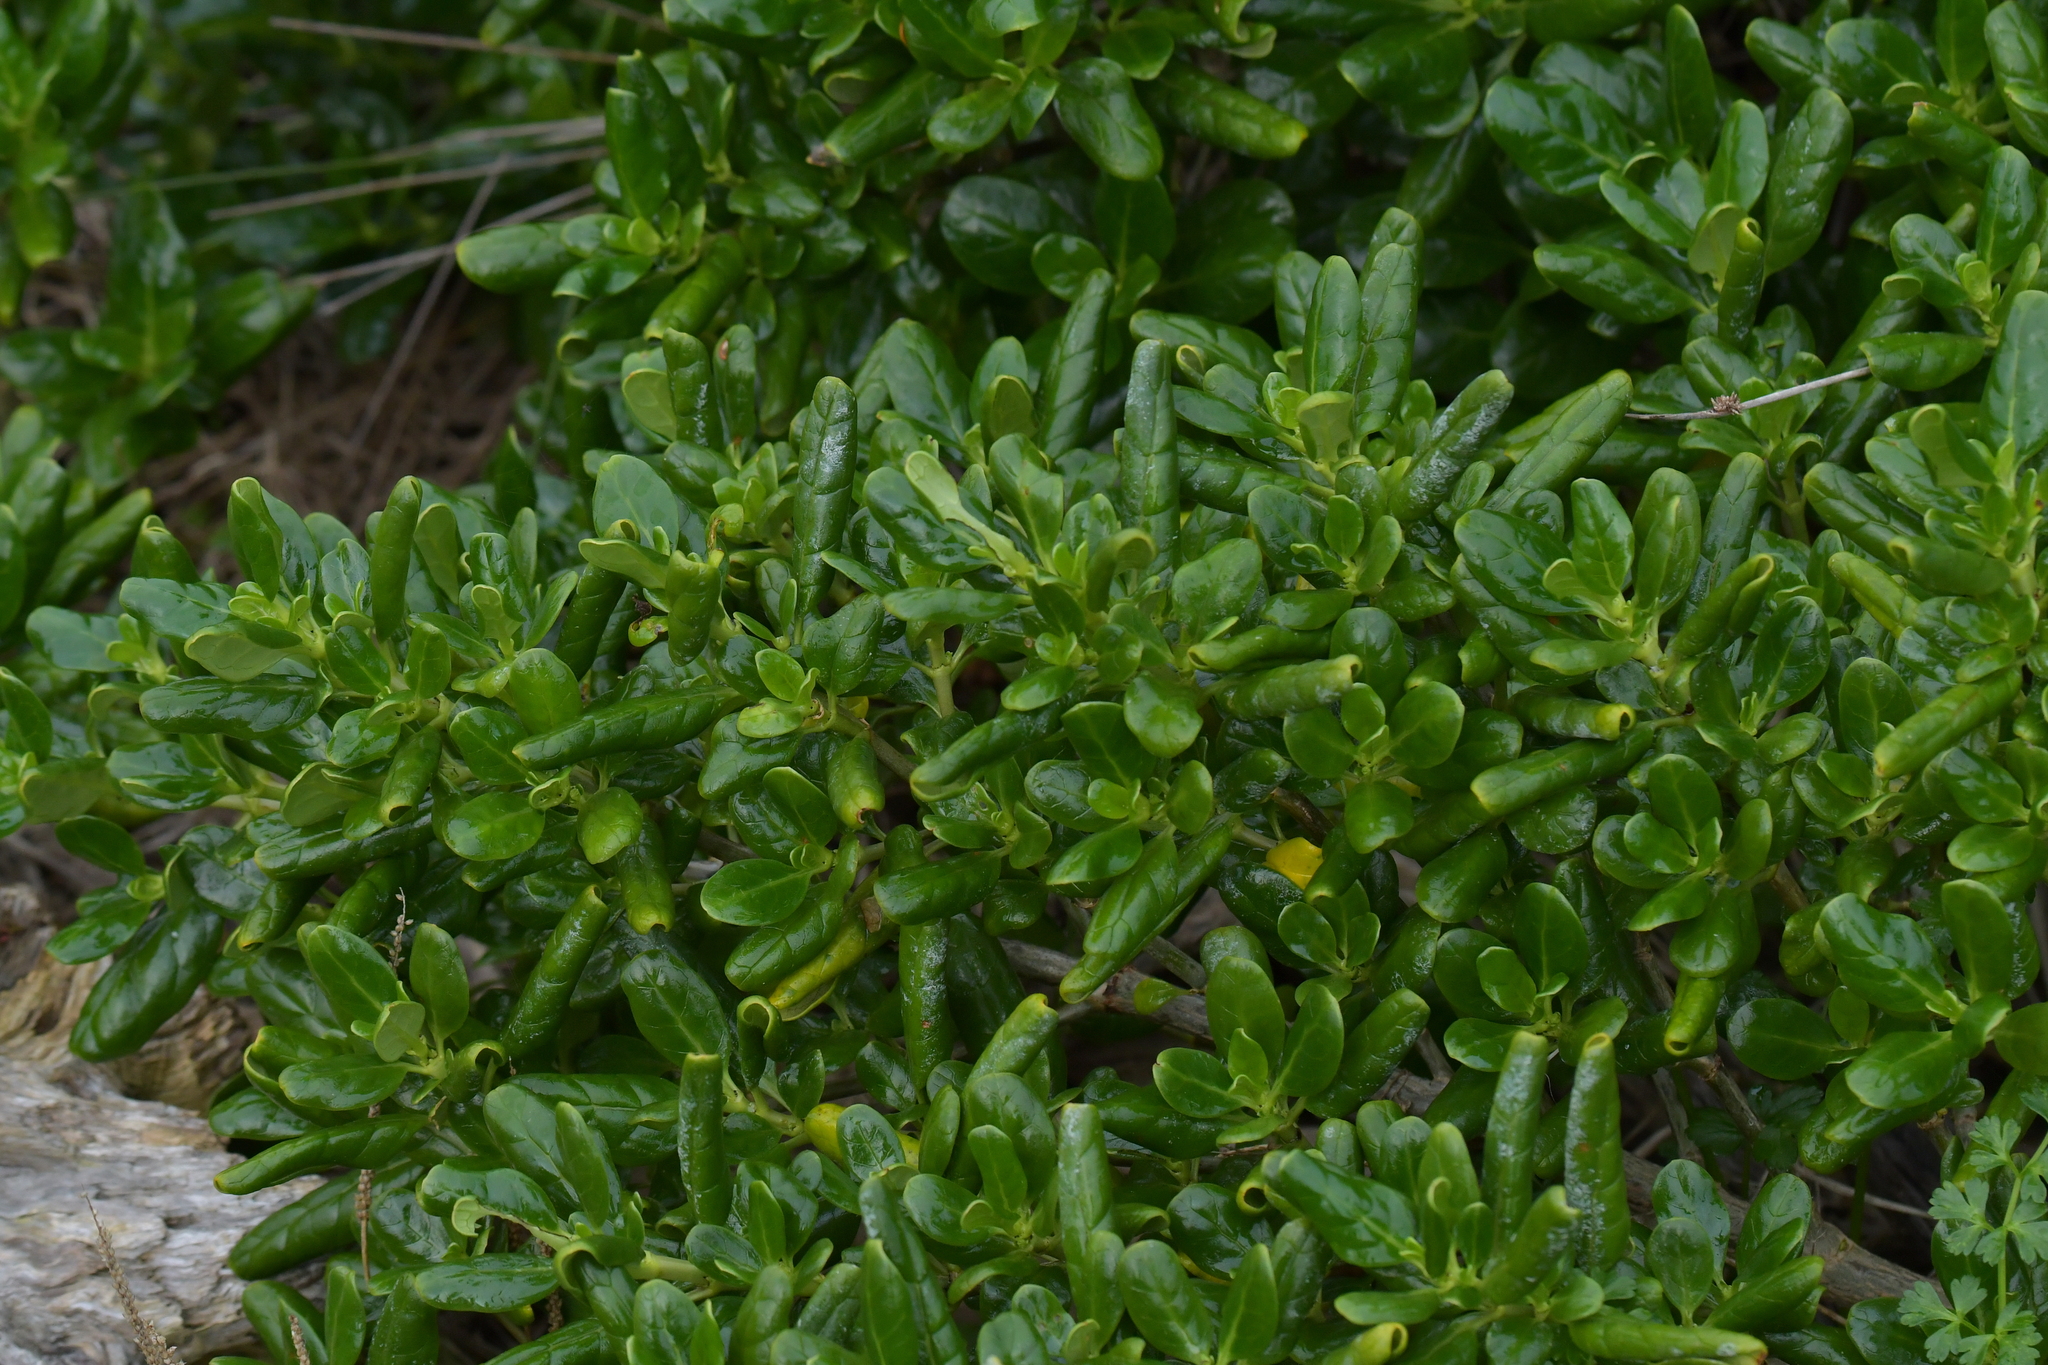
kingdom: Plantae
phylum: Tracheophyta
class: Magnoliopsida
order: Gentianales
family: Rubiaceae
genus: Coprosma
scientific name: Coprosma repens
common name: Tree bedstraw
